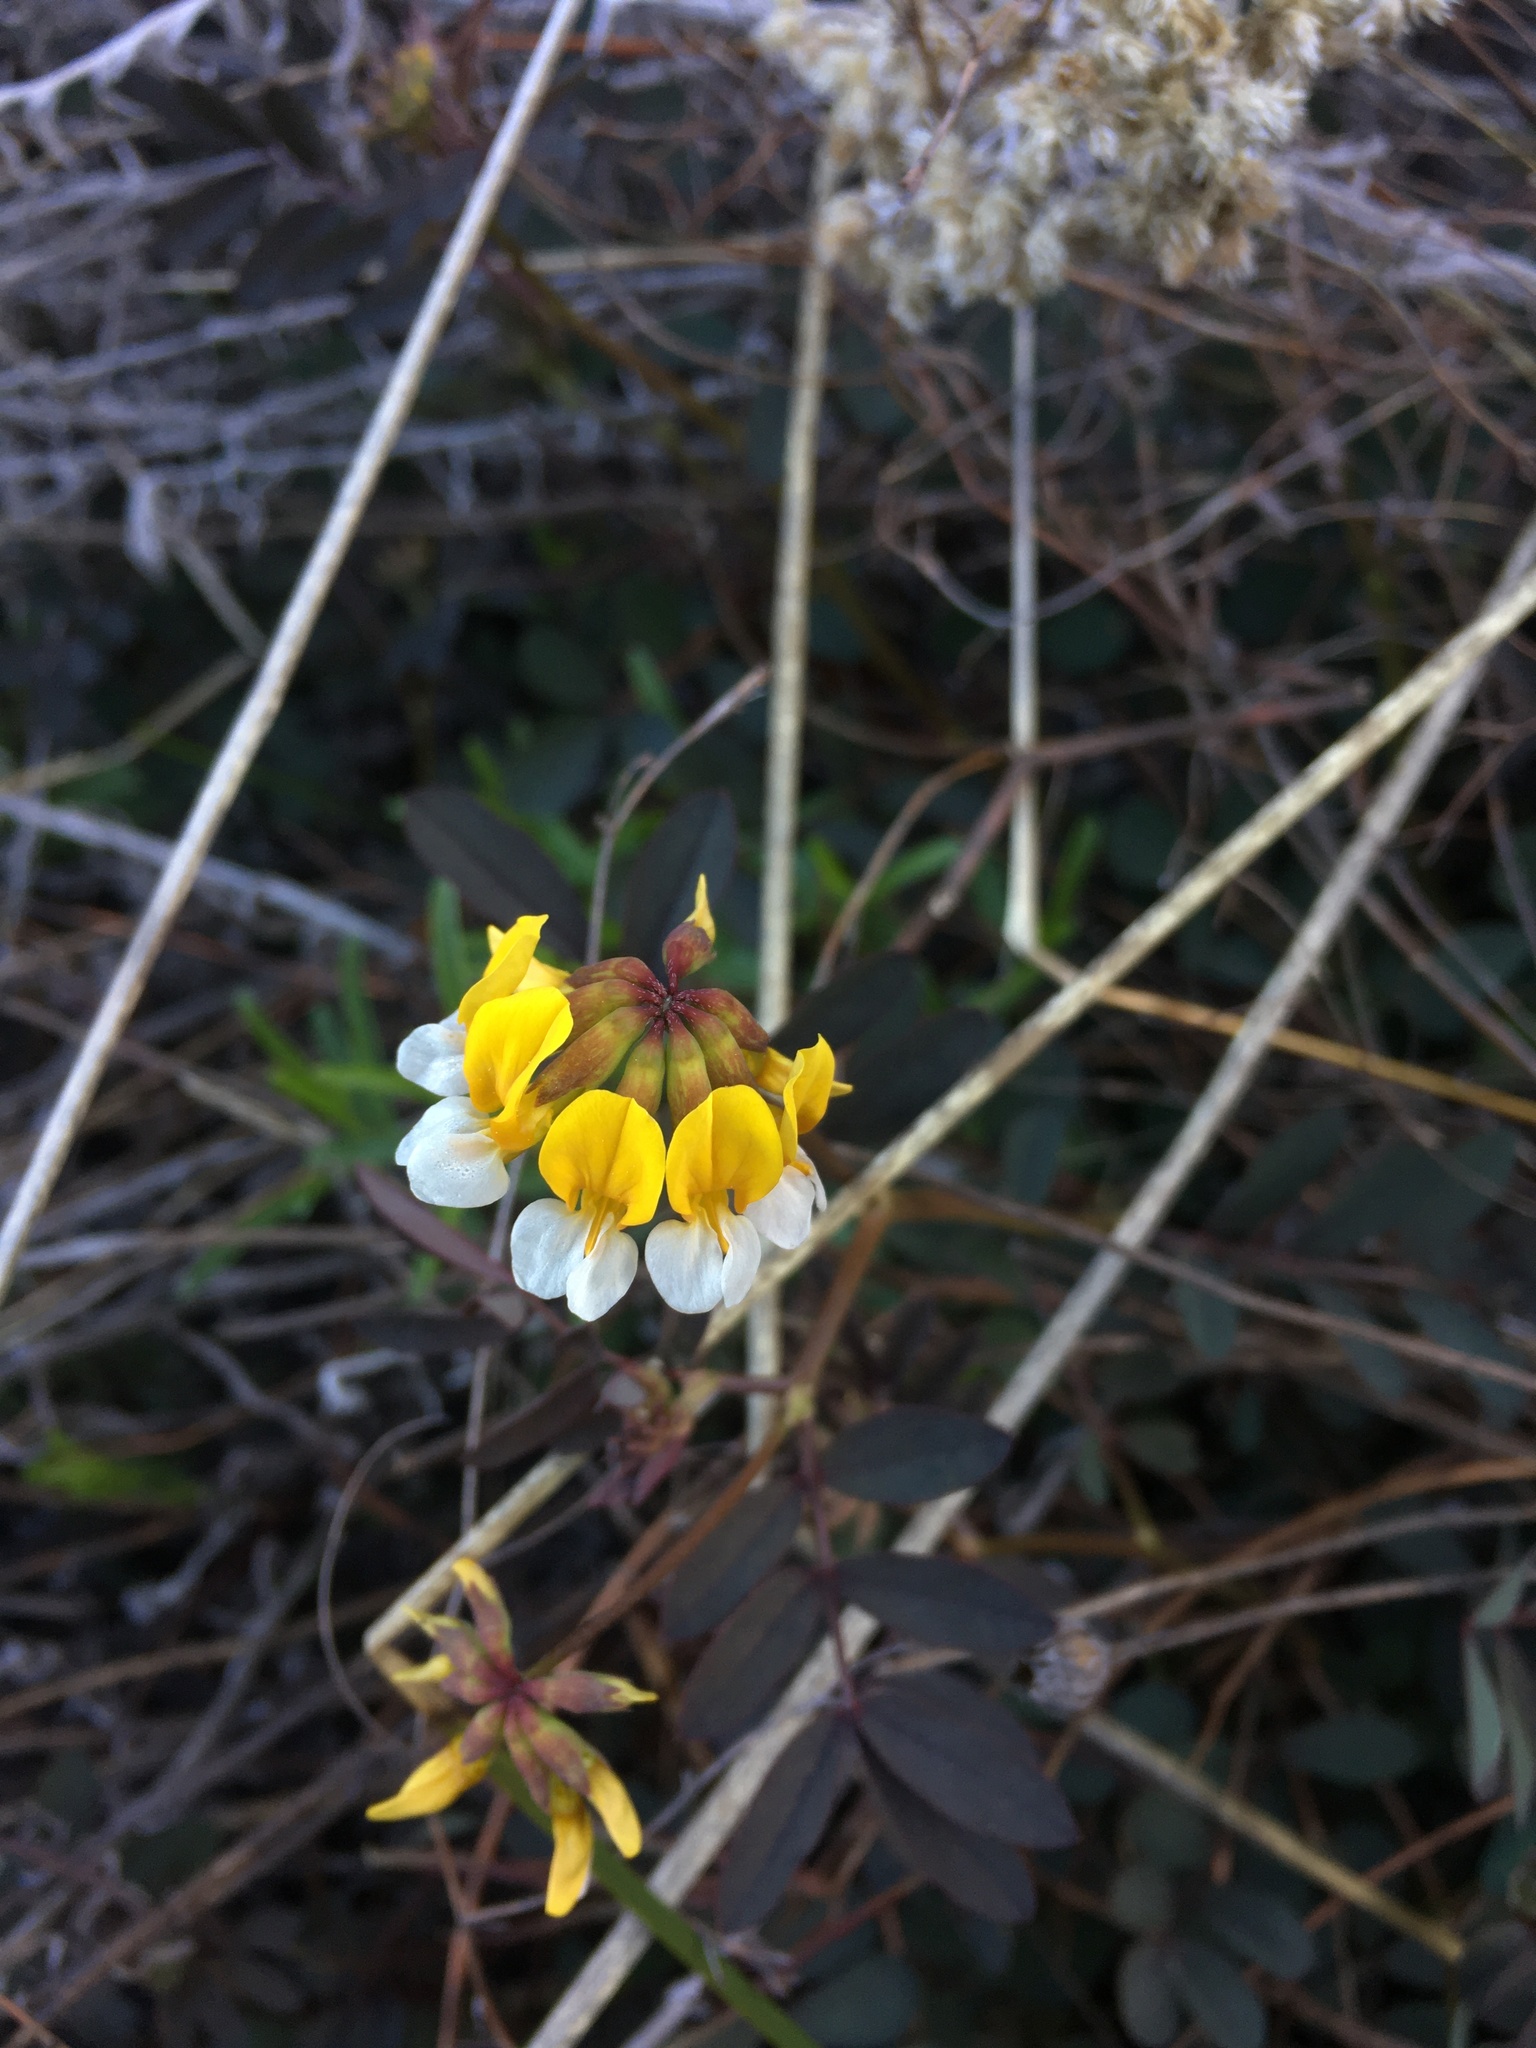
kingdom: Plantae
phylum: Tracheophyta
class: Magnoliopsida
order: Fabales
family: Fabaceae
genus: Hosackia
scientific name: Hosackia pinnata
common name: Bog bird's-foot trefoil
